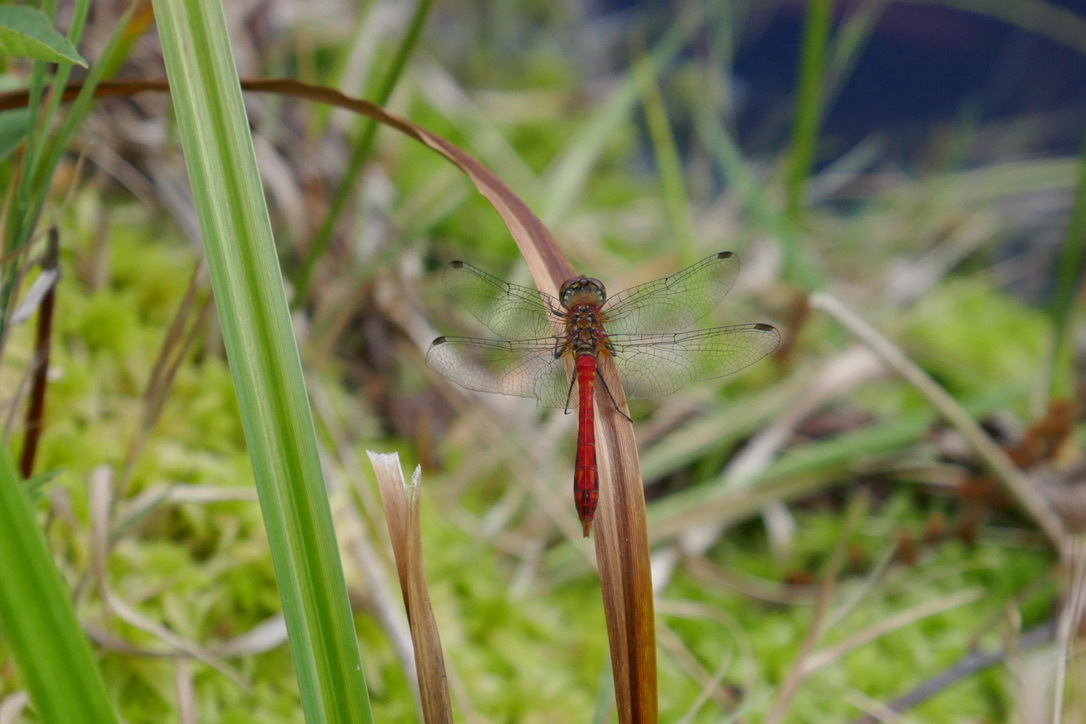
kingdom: Animalia
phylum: Arthropoda
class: Insecta
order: Odonata
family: Libellulidae
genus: Sympetrum
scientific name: Sympetrum sanguineum
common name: Ruddy darter
